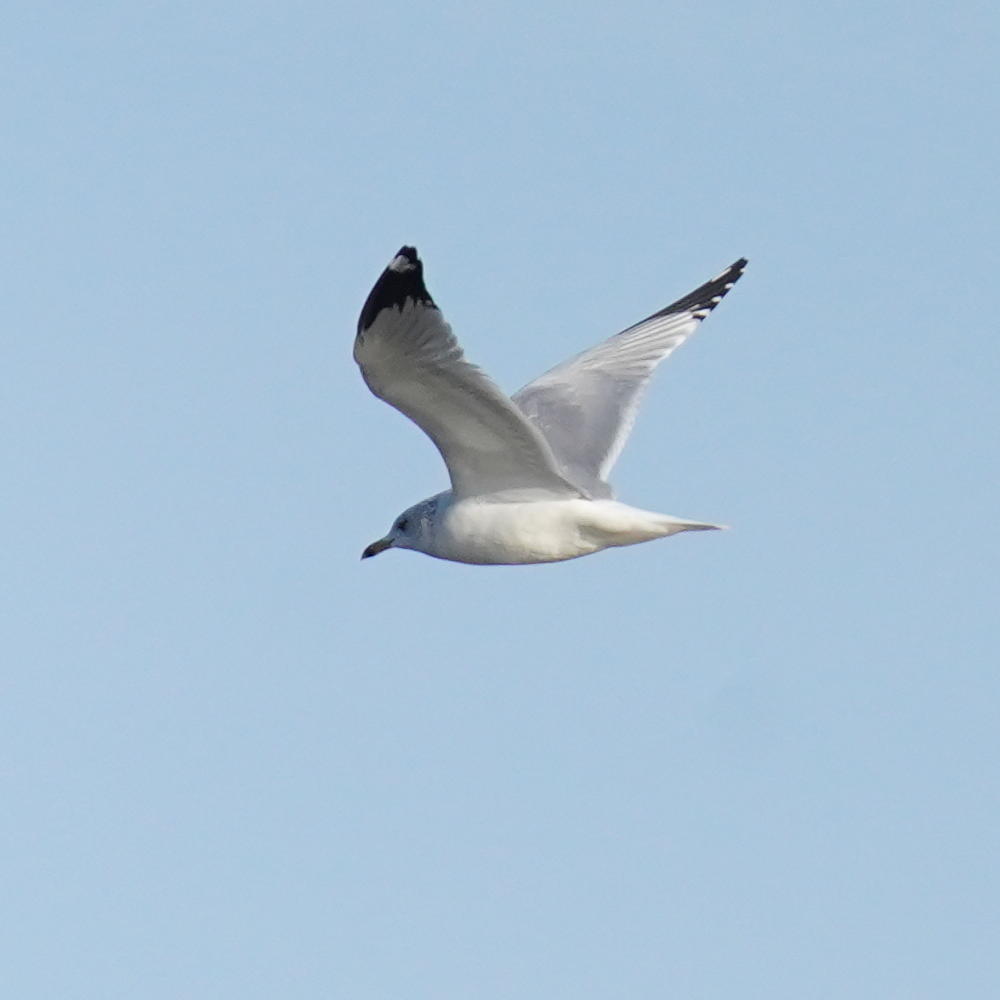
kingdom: Animalia
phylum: Chordata
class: Aves
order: Charadriiformes
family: Laridae
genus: Larus
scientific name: Larus delawarensis
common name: Ring-billed gull
